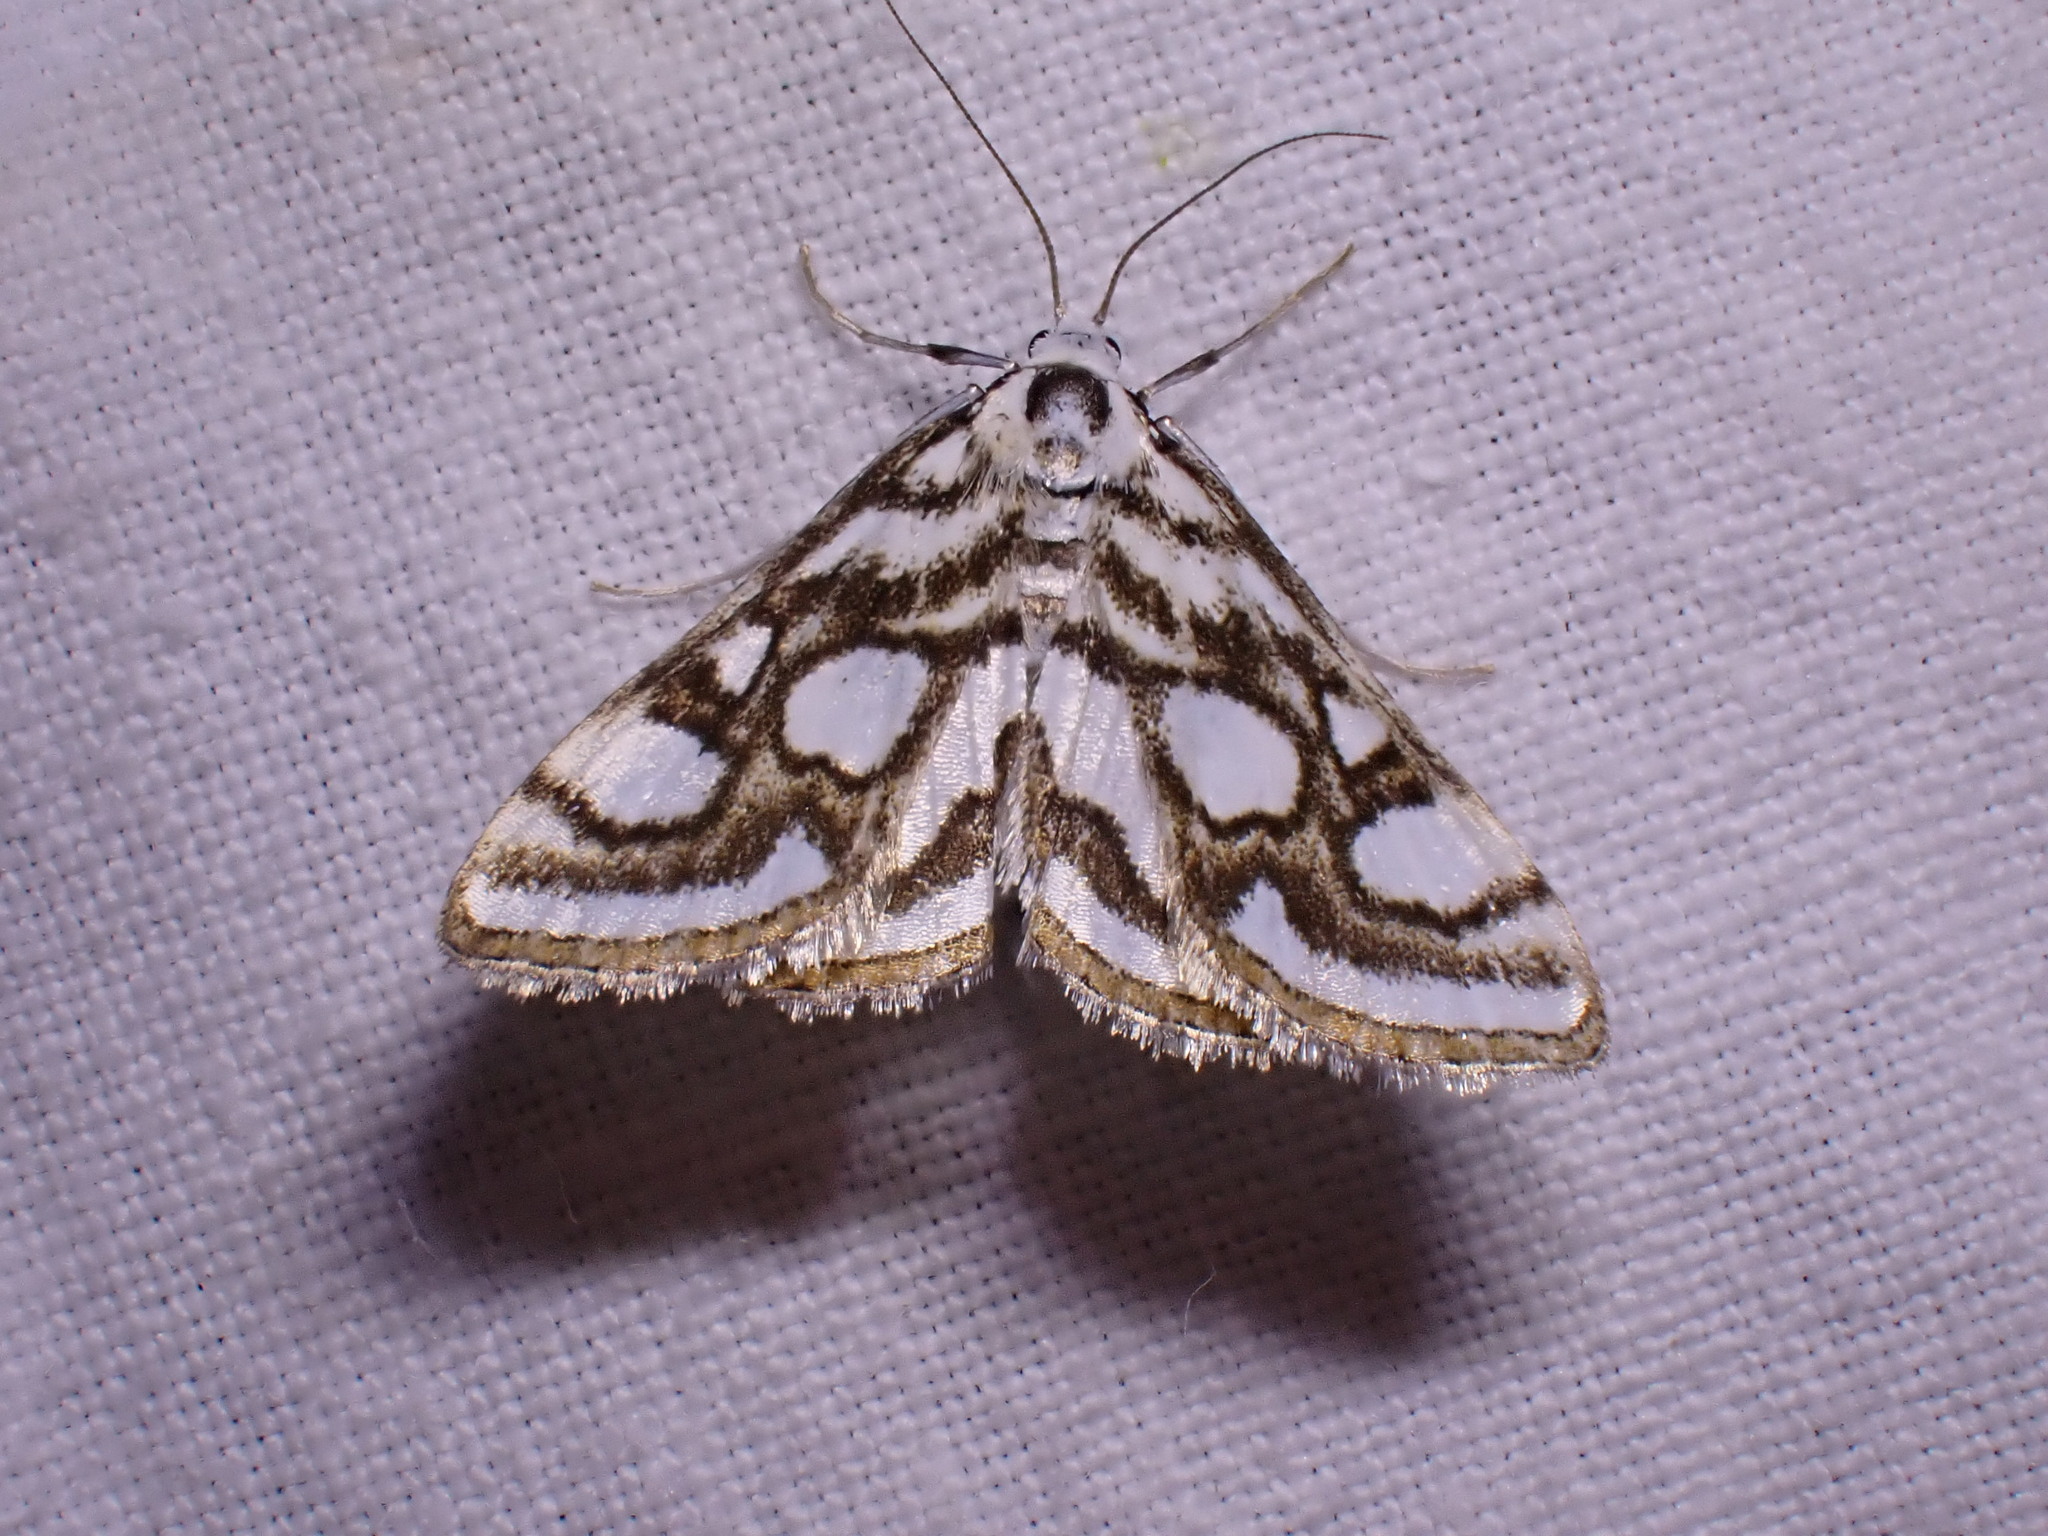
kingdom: Animalia
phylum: Arthropoda
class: Insecta
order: Lepidoptera
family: Crambidae
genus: Nymphula
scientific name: Nymphula nitidulata
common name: Beautiful china mark
